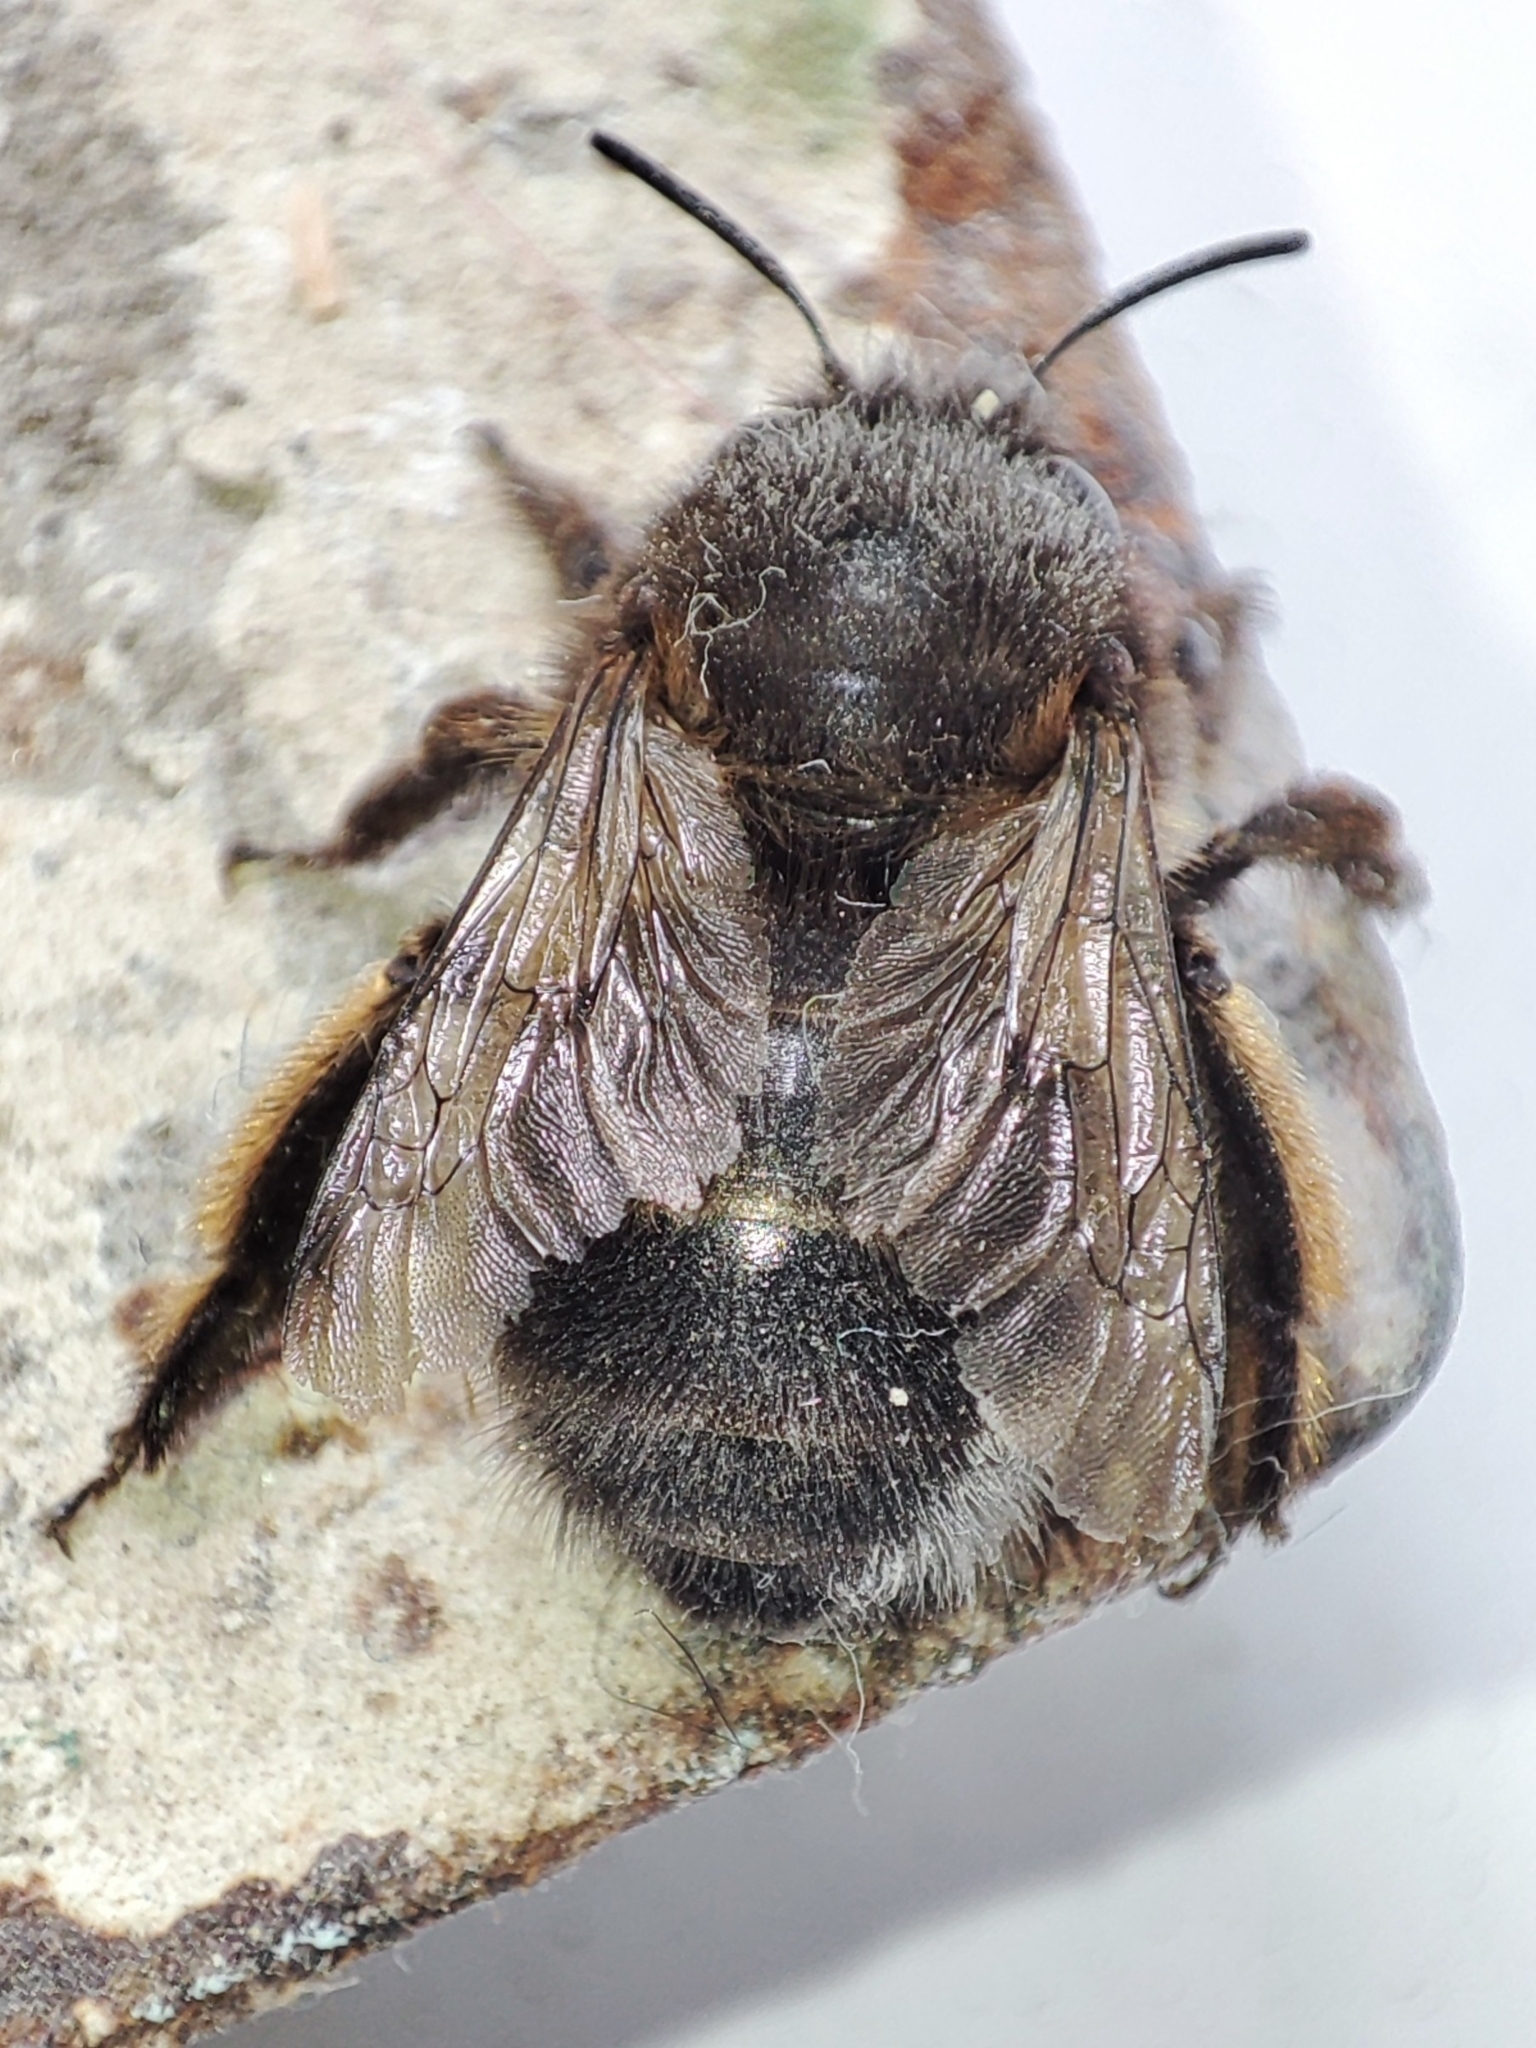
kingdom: Animalia
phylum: Arthropoda
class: Insecta
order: Hymenoptera
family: Apidae
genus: Anthophora
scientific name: Anthophora plumipes
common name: Hairy-footed flower bee
